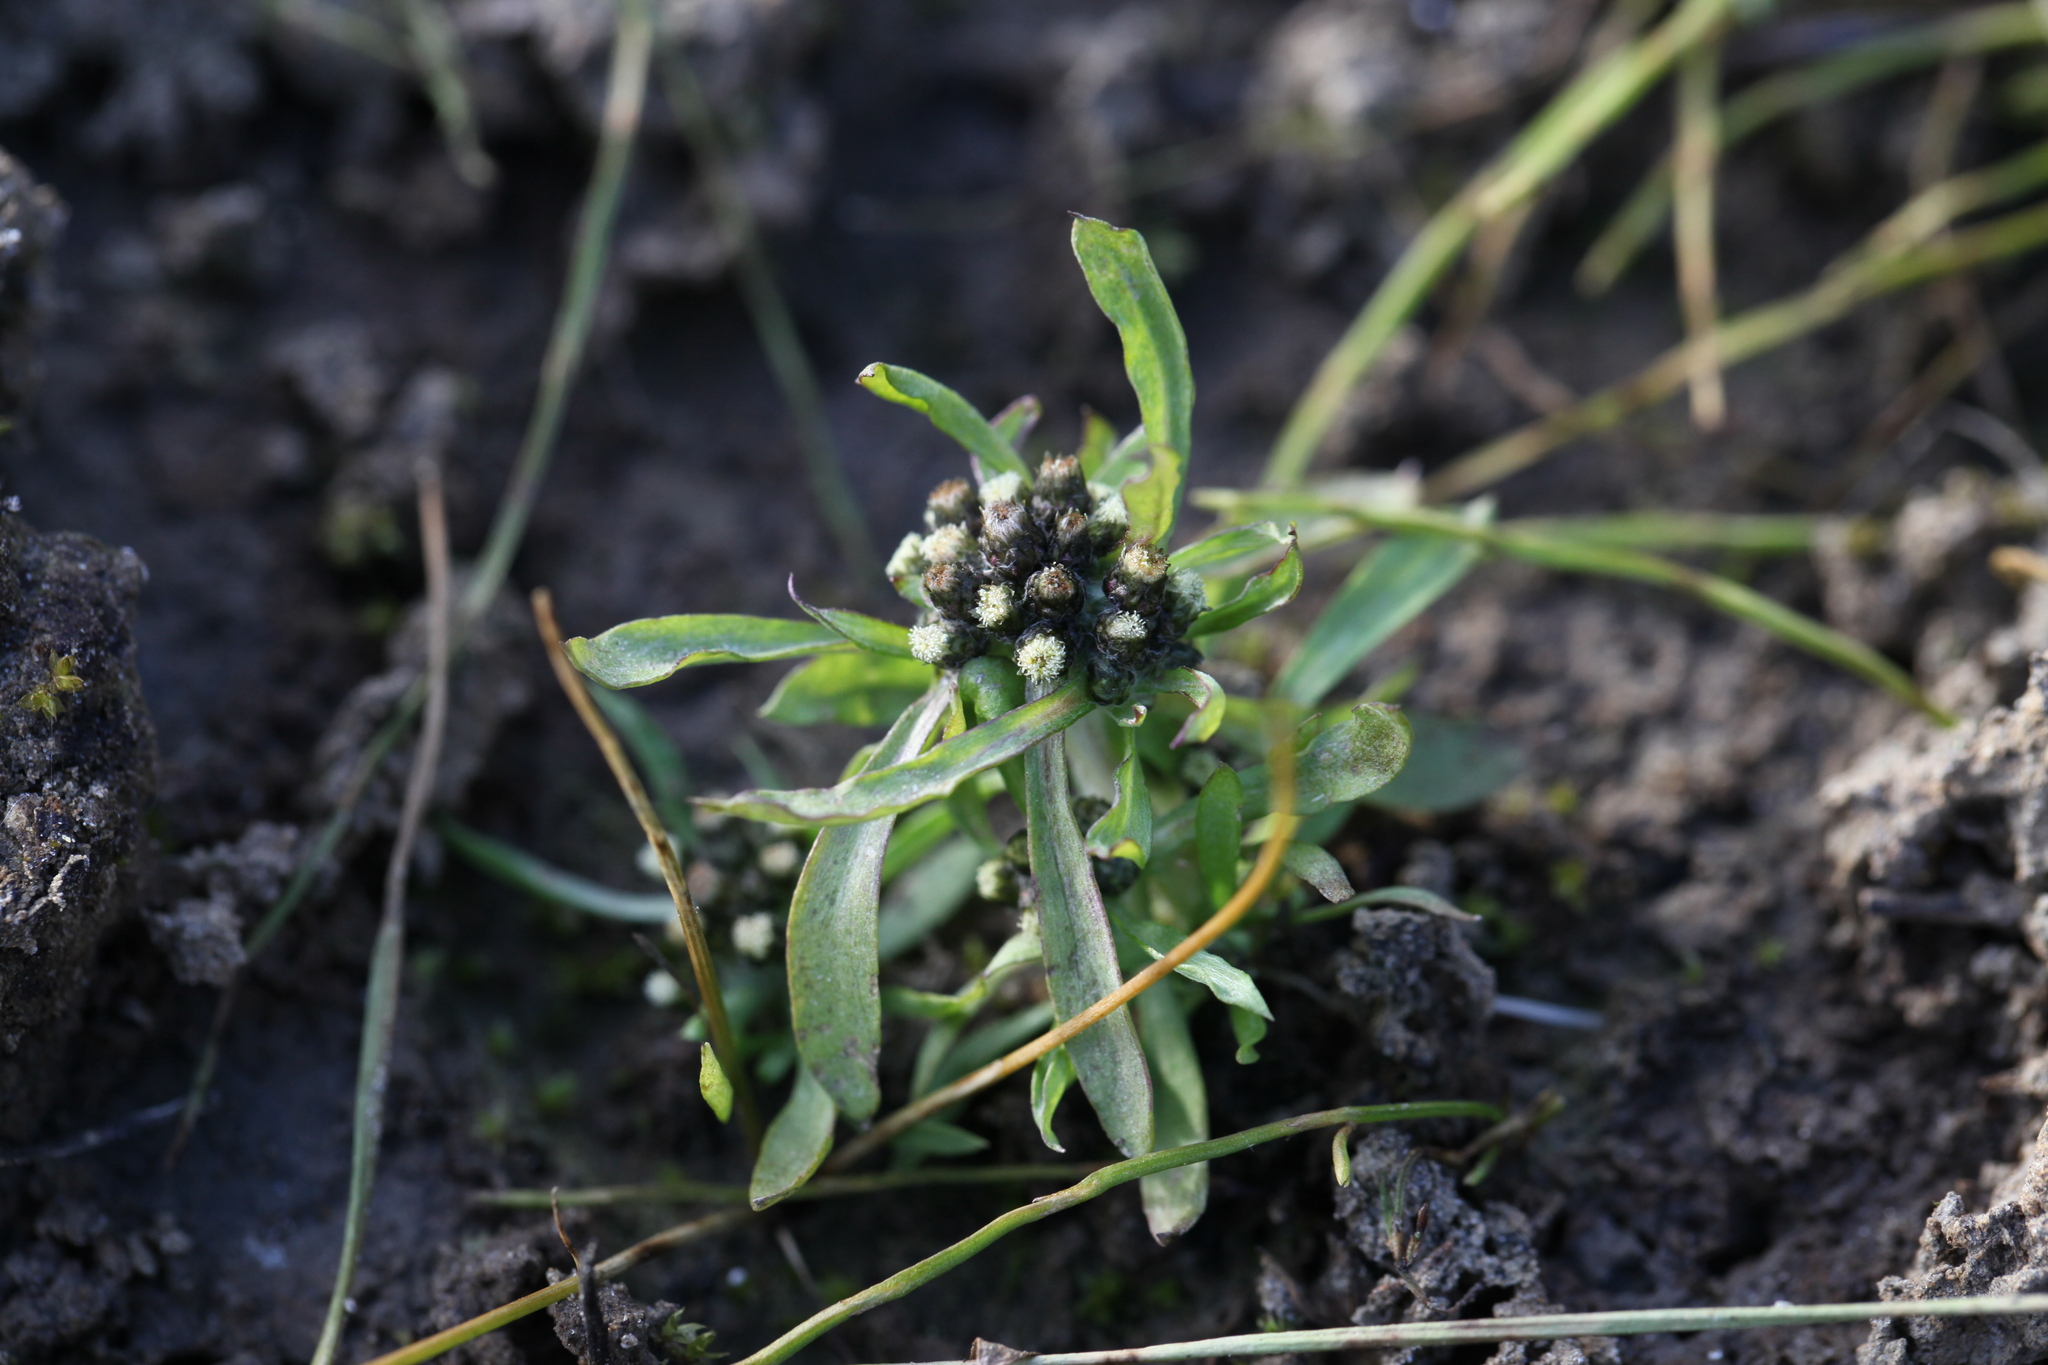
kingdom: Plantae
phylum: Tracheophyta
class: Magnoliopsida
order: Asterales
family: Asteraceae
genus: Gnaphalium
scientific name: Gnaphalium pilulare
